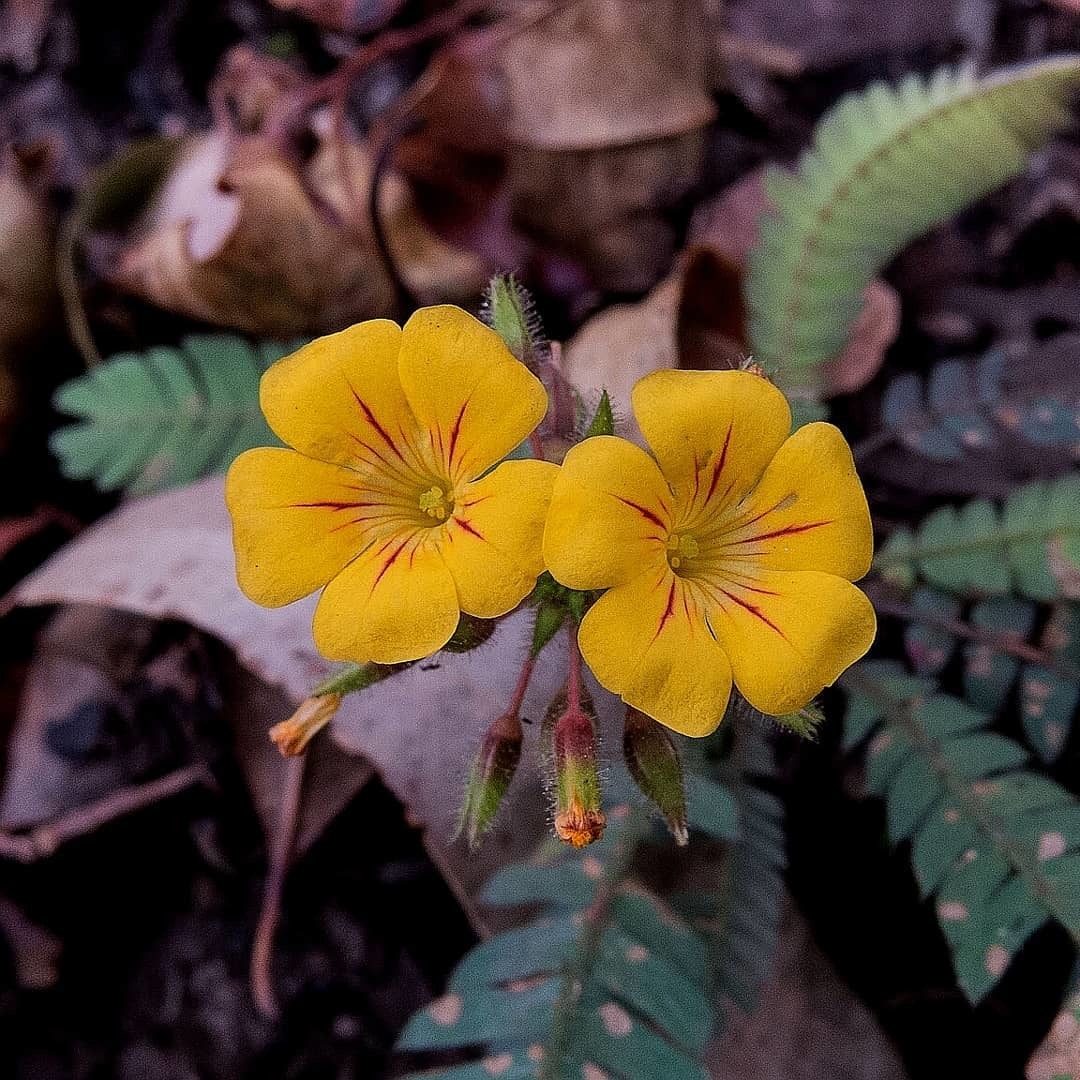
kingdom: Plantae
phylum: Tracheophyta
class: Magnoliopsida
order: Oxalidales
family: Oxalidaceae
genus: Biophytum
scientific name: Biophytum sensitivum
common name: Lifeplant
